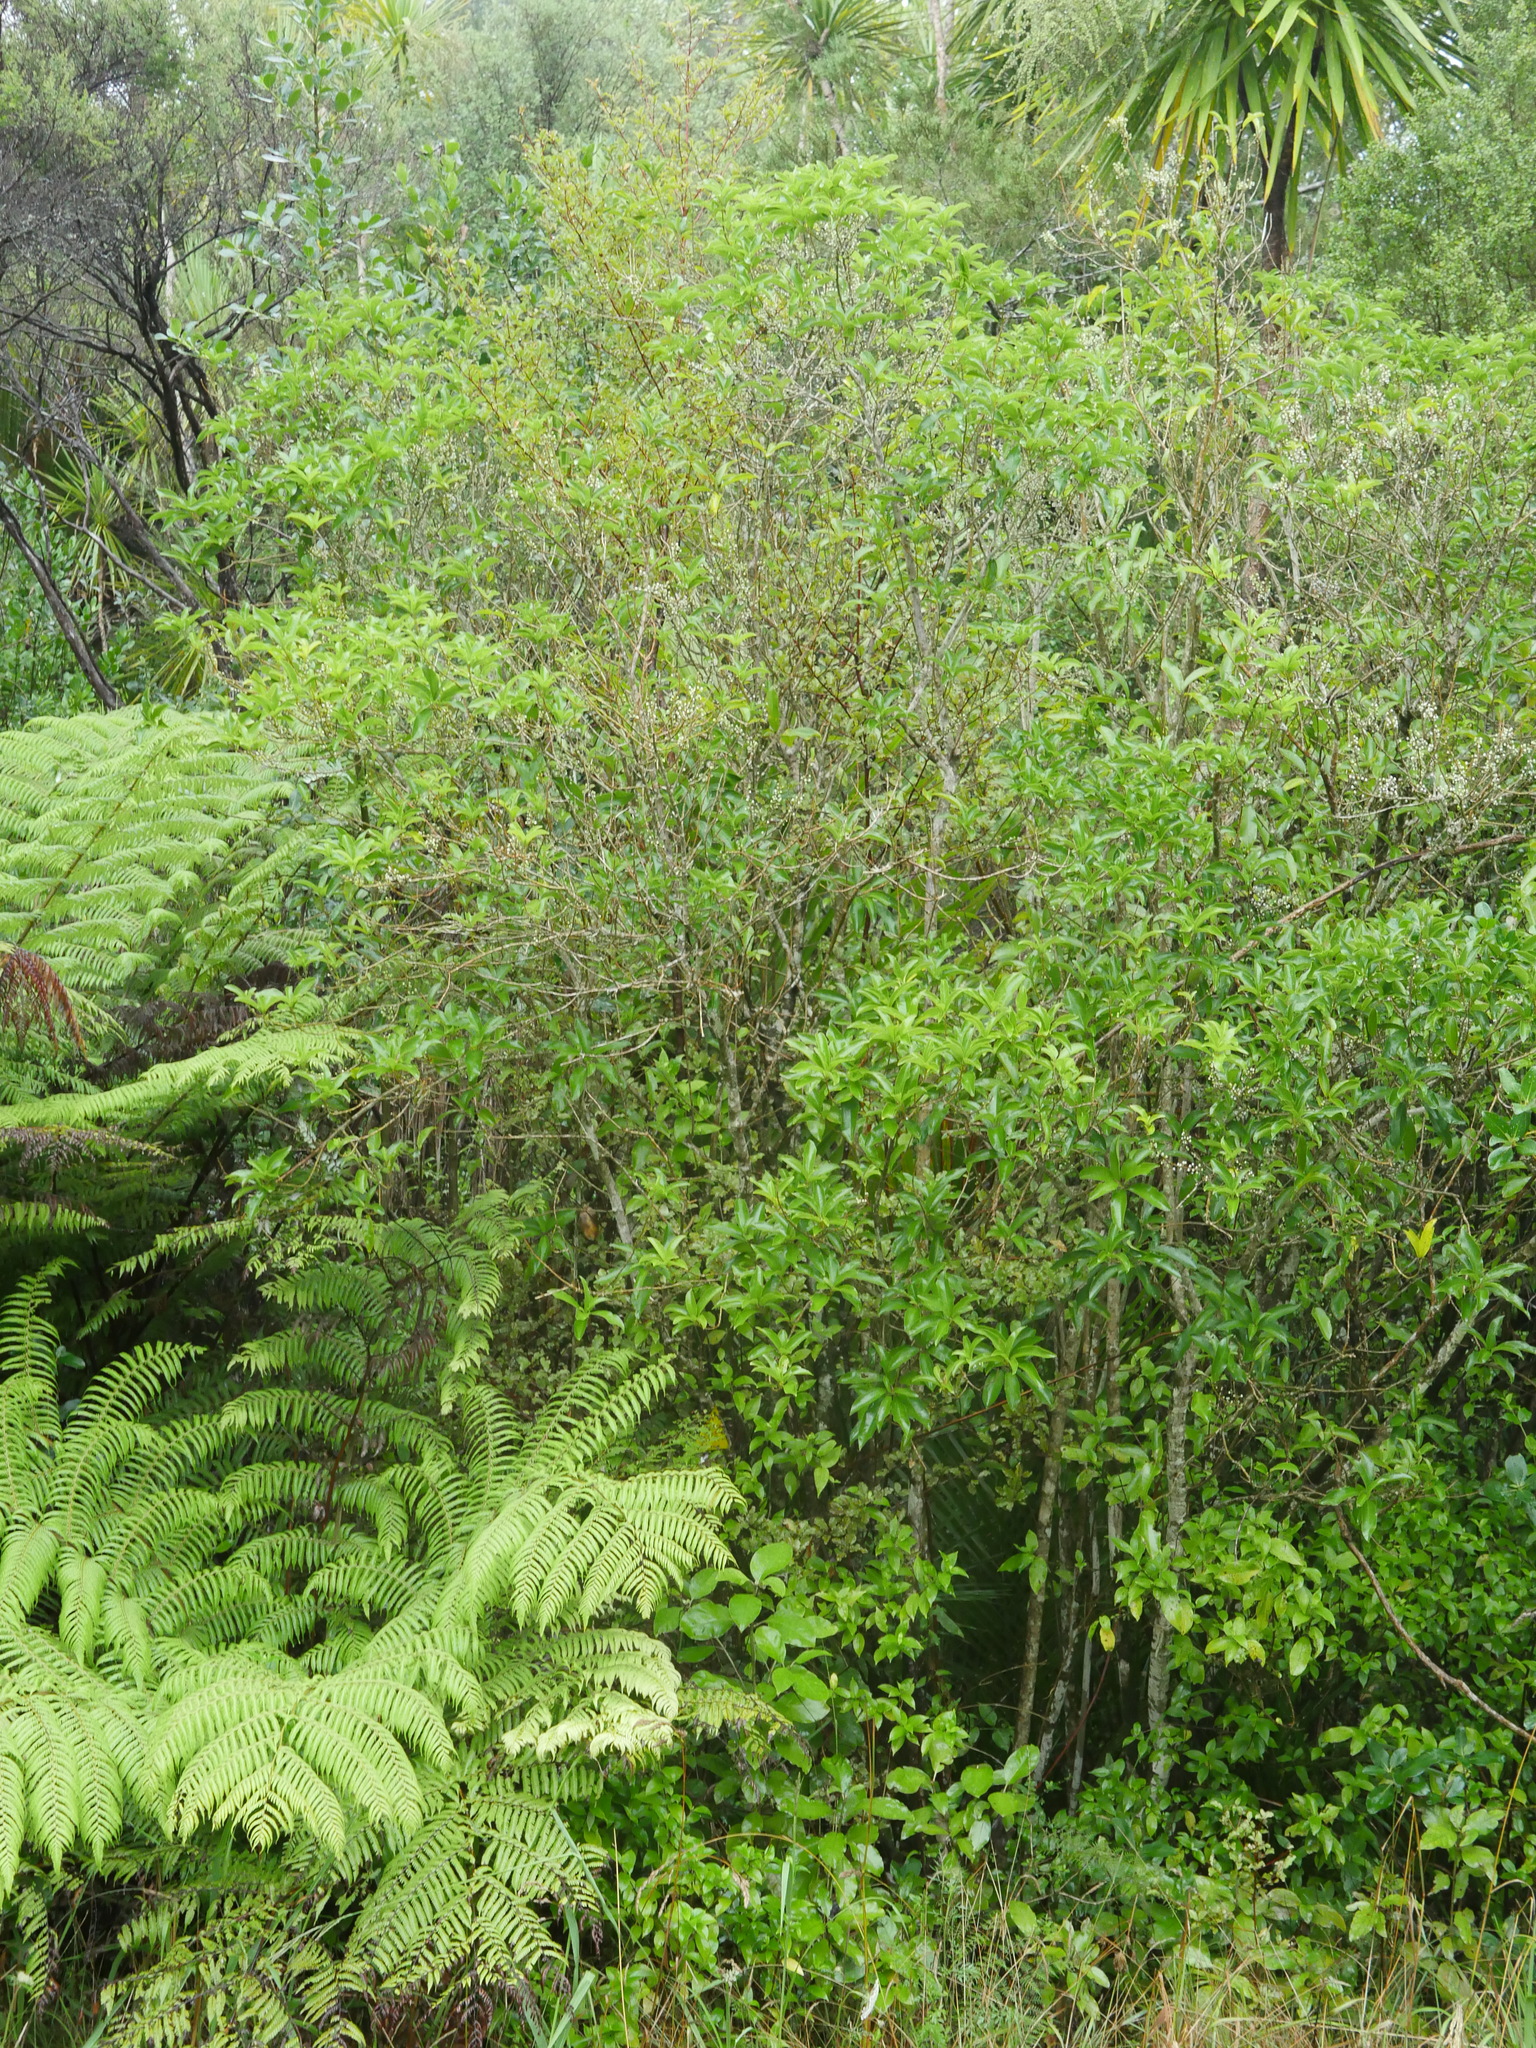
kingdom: Plantae
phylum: Tracheophyta
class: Magnoliopsida
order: Malpighiales
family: Violaceae
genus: Melicytus
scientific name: Melicytus ramiflorus
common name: Mahoe
